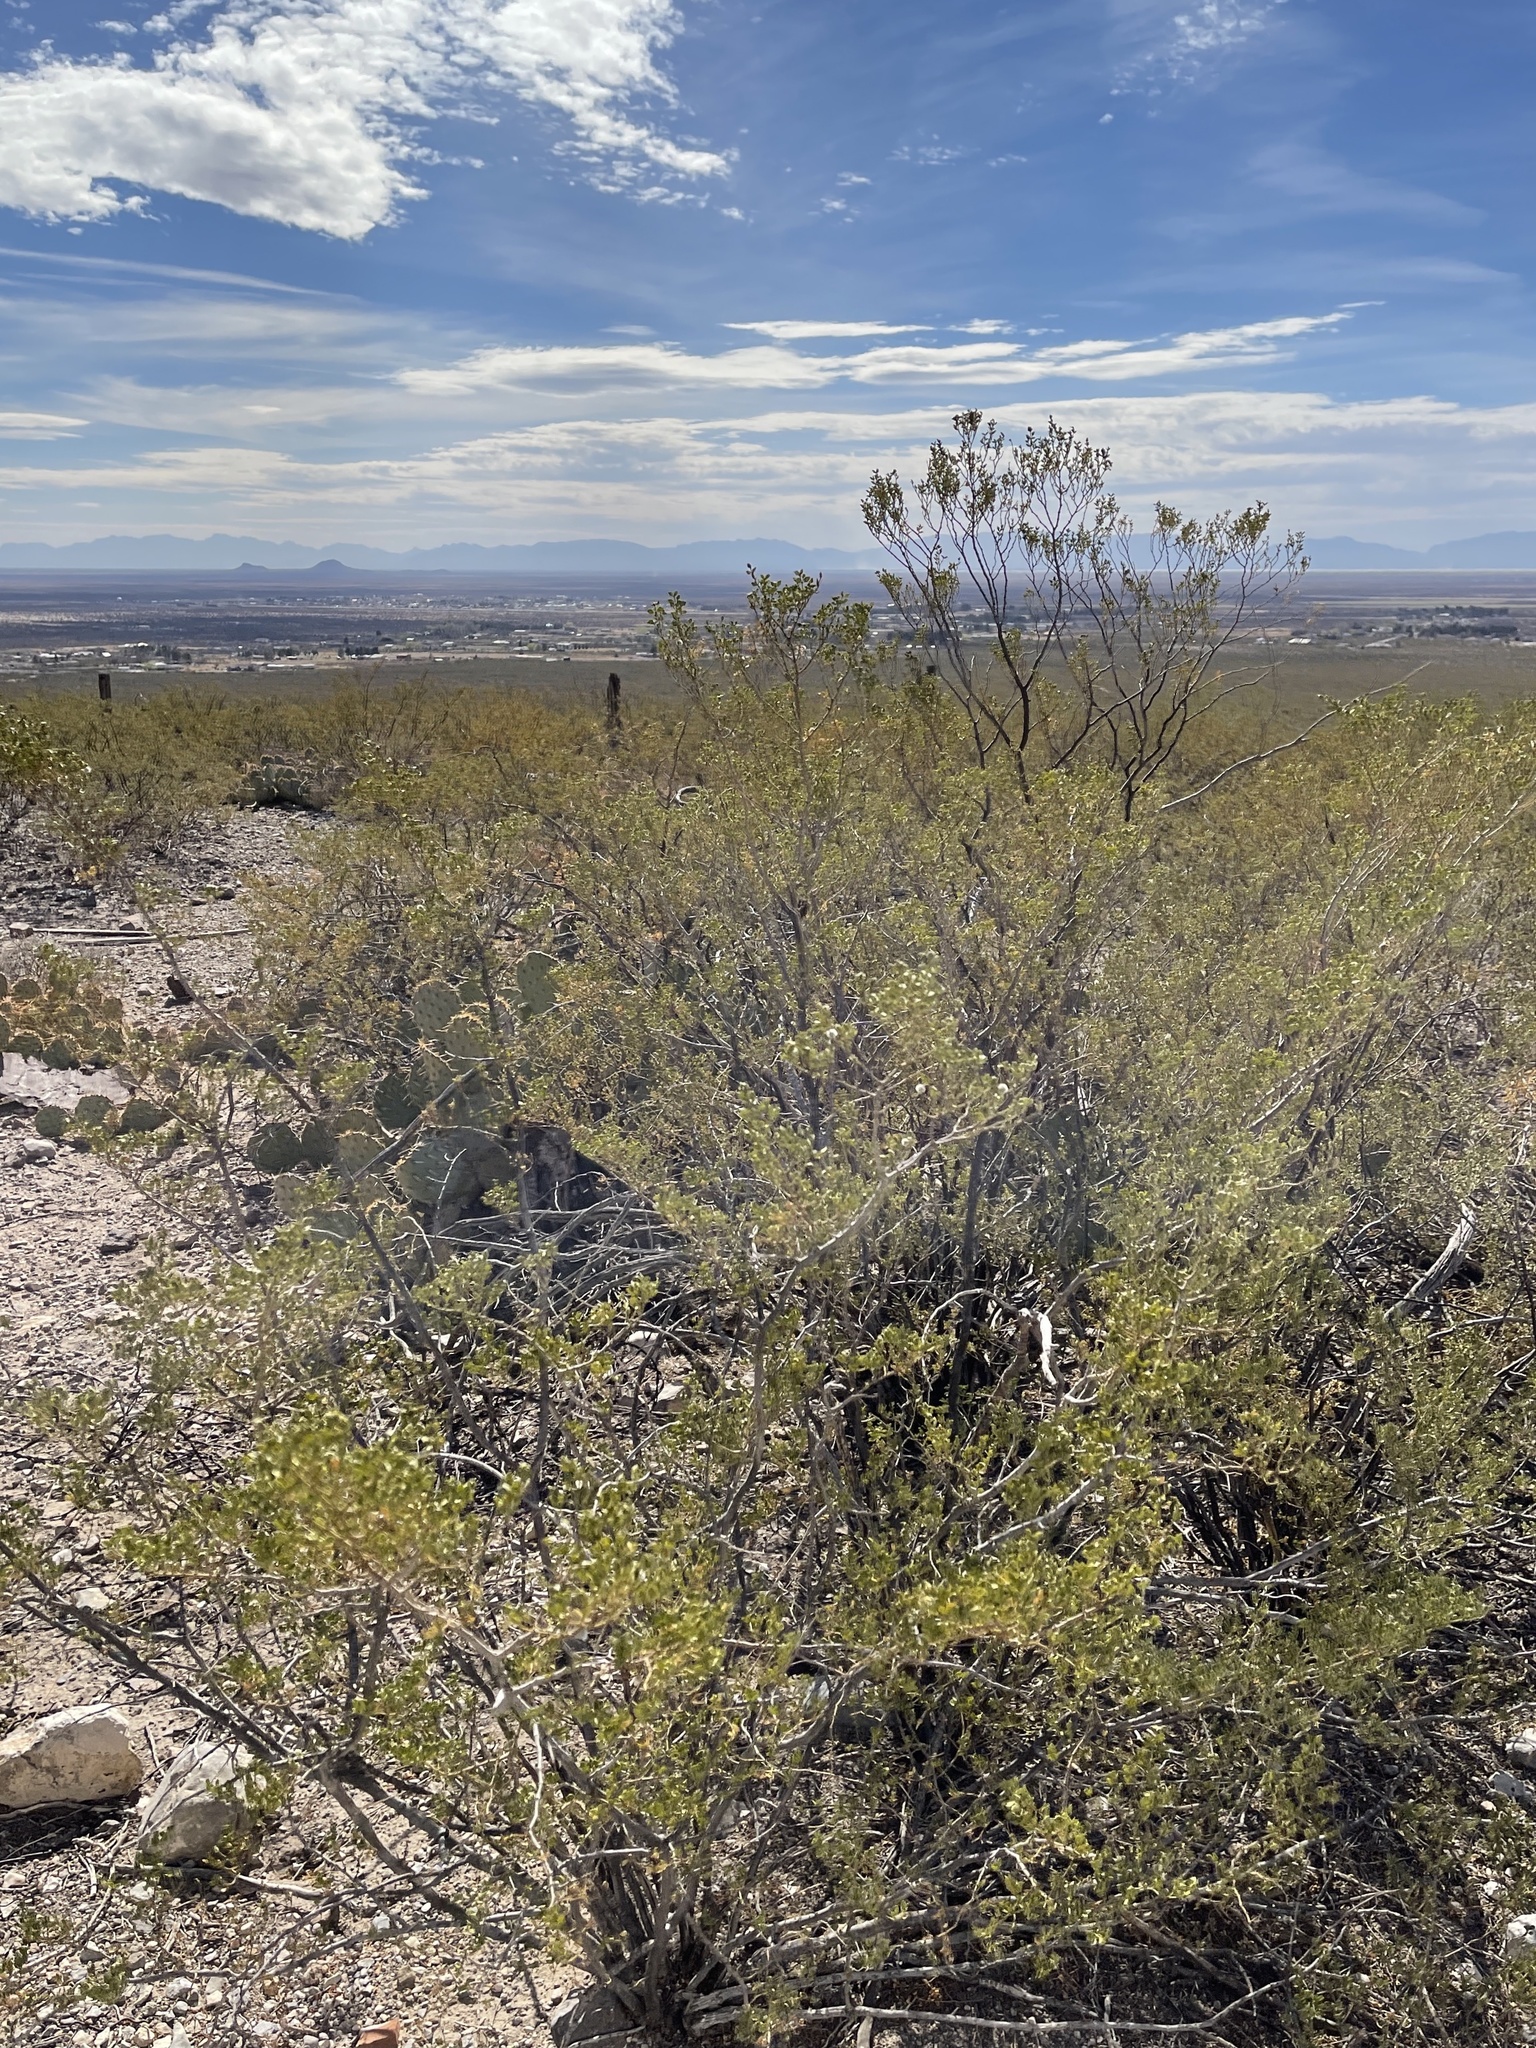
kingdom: Plantae
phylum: Tracheophyta
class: Magnoliopsida
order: Zygophyllales
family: Zygophyllaceae
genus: Larrea
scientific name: Larrea tridentata
